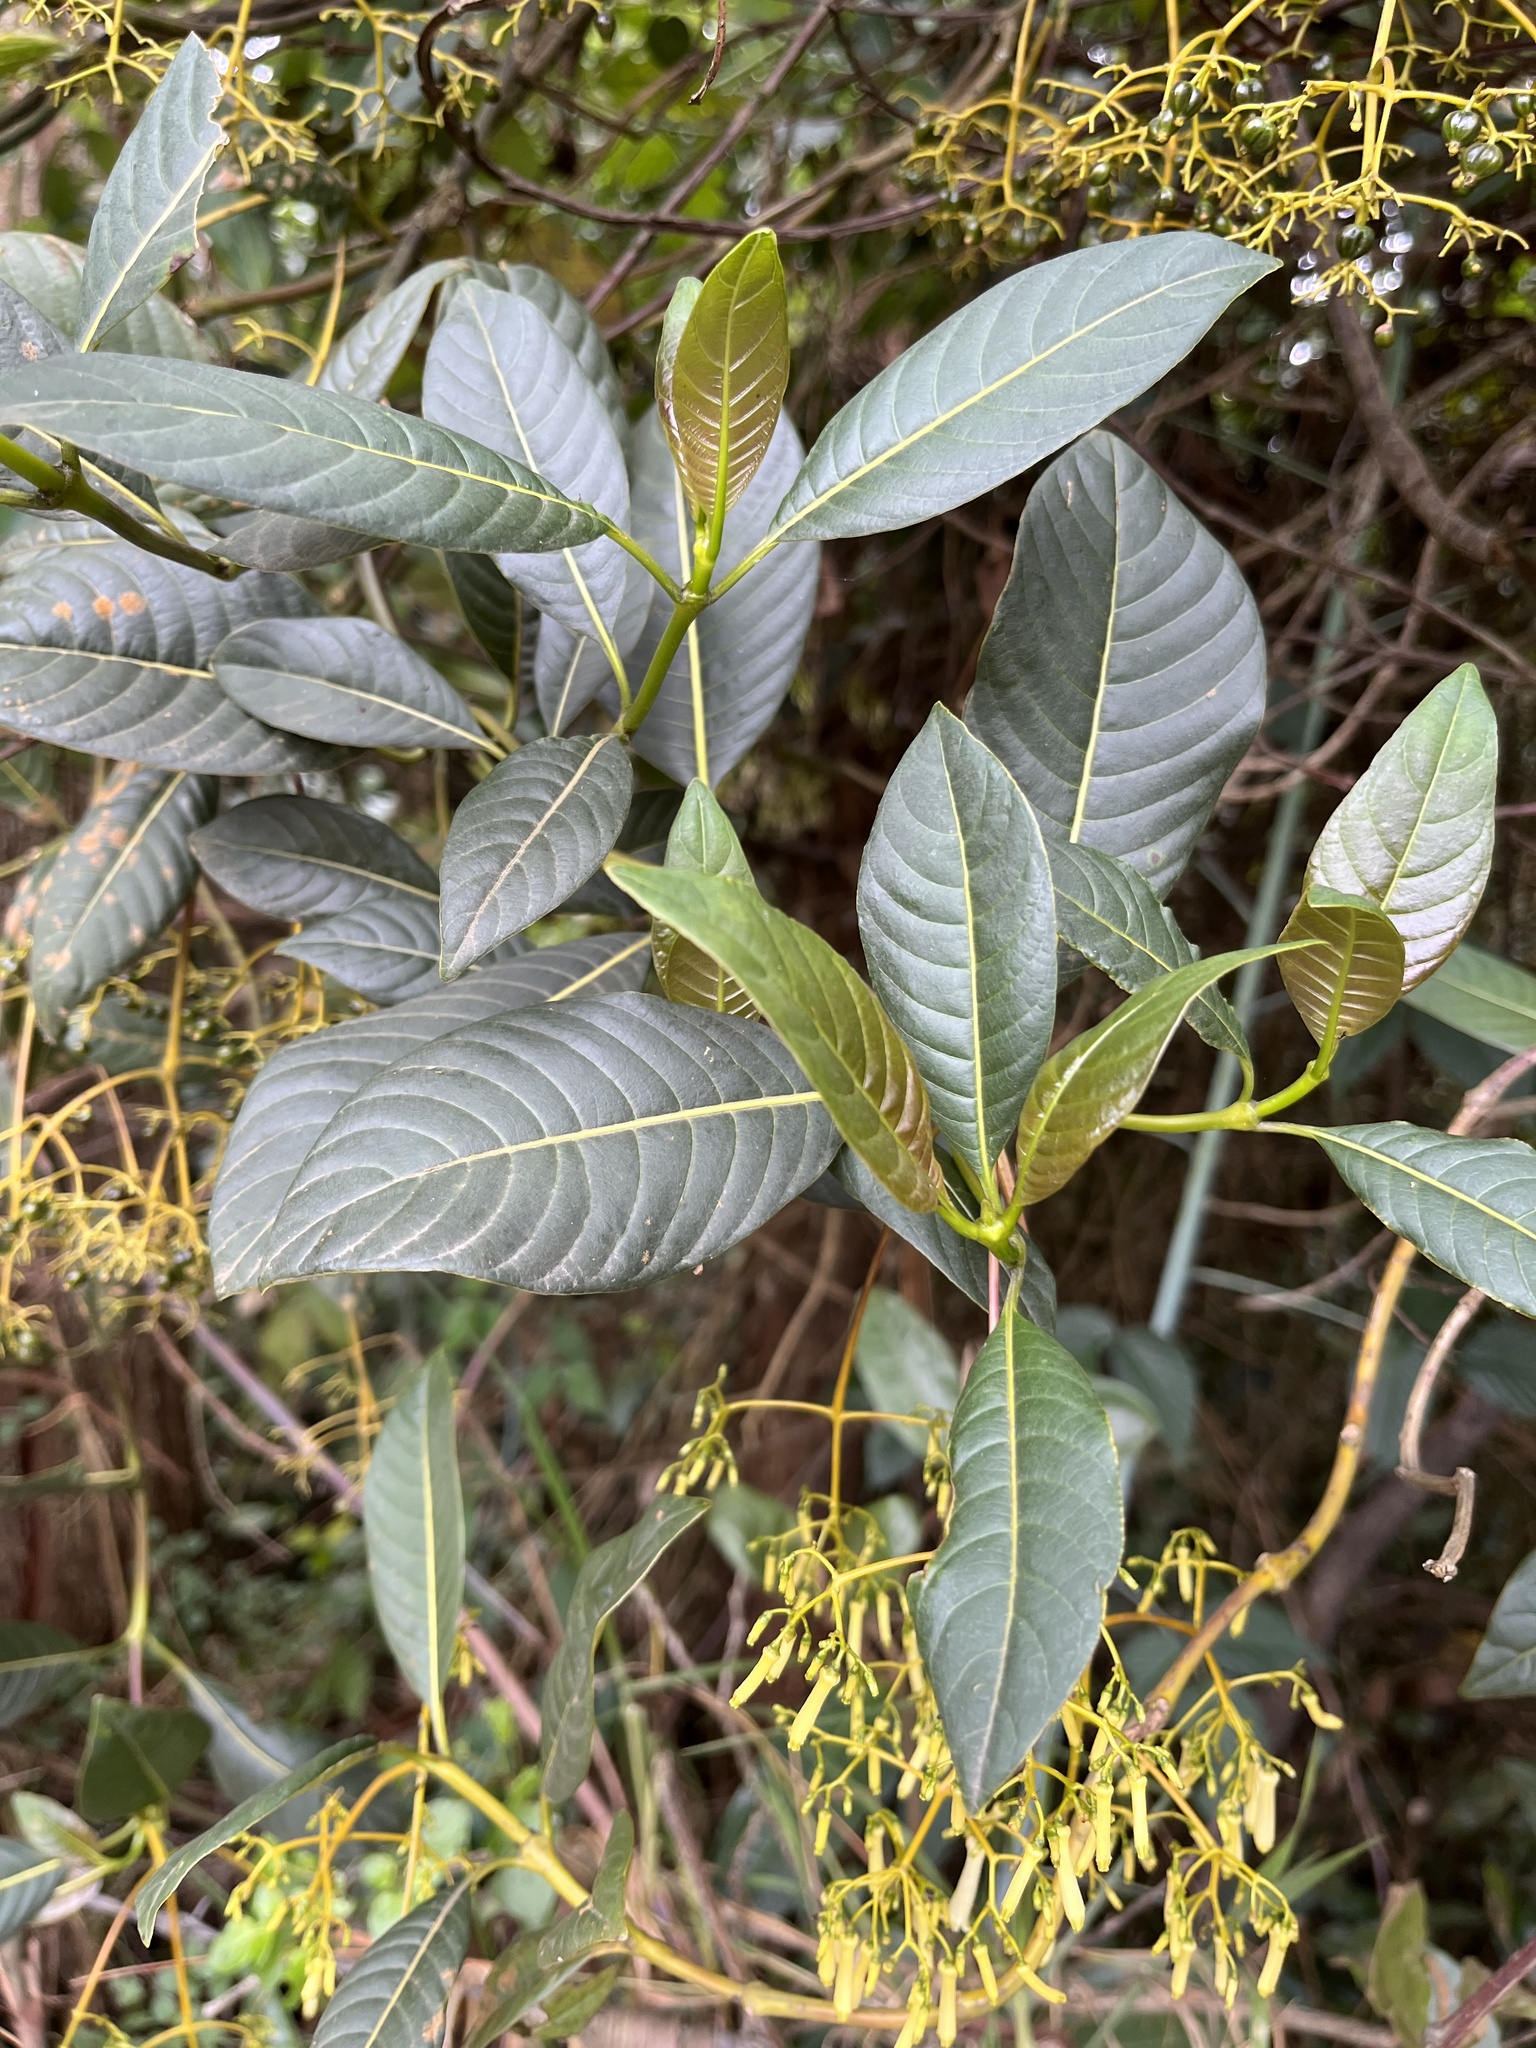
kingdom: Plantae
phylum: Tracheophyta
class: Magnoliopsida
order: Gentianales
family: Rubiaceae
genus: Palicourea
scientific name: Palicourea lineariflora
